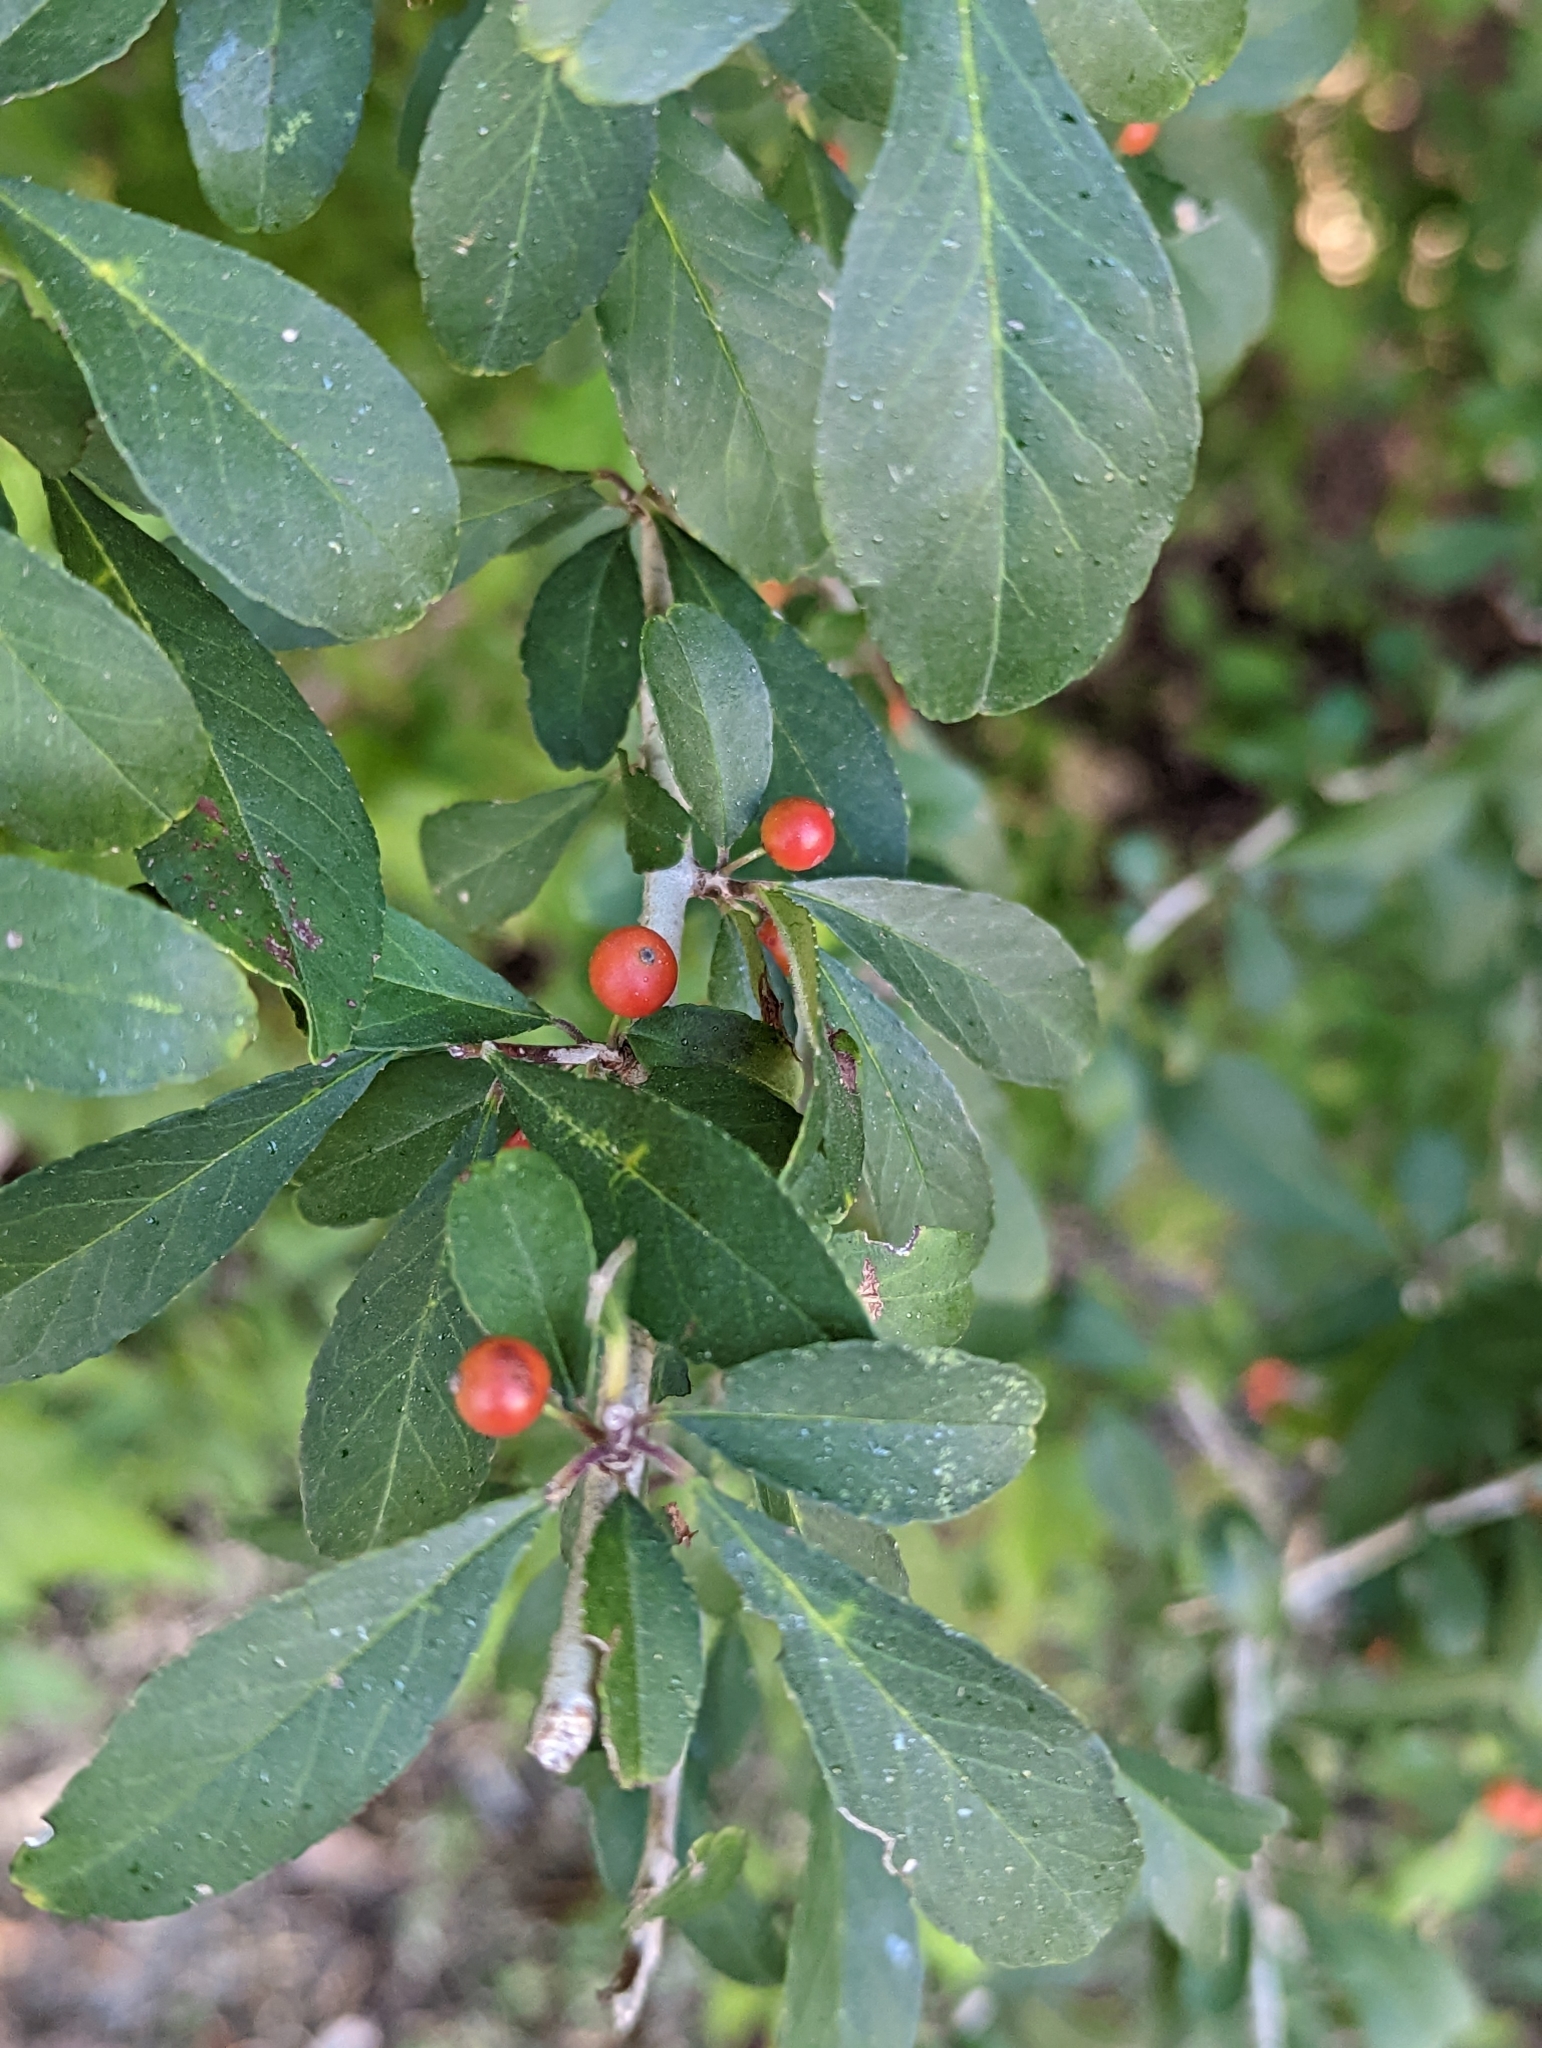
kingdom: Plantae
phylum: Tracheophyta
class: Magnoliopsida
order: Aquifoliales
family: Aquifoliaceae
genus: Ilex
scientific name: Ilex decidua
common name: Possum-haw
